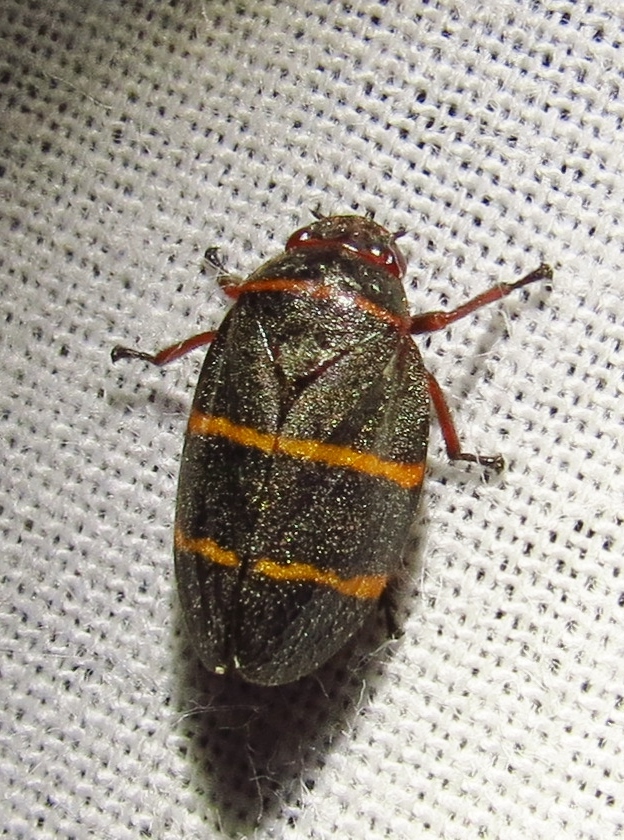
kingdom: Animalia
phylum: Arthropoda
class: Insecta
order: Hemiptera
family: Cercopidae
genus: Prosapia
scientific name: Prosapia bicincta
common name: Twolined spittlebug
